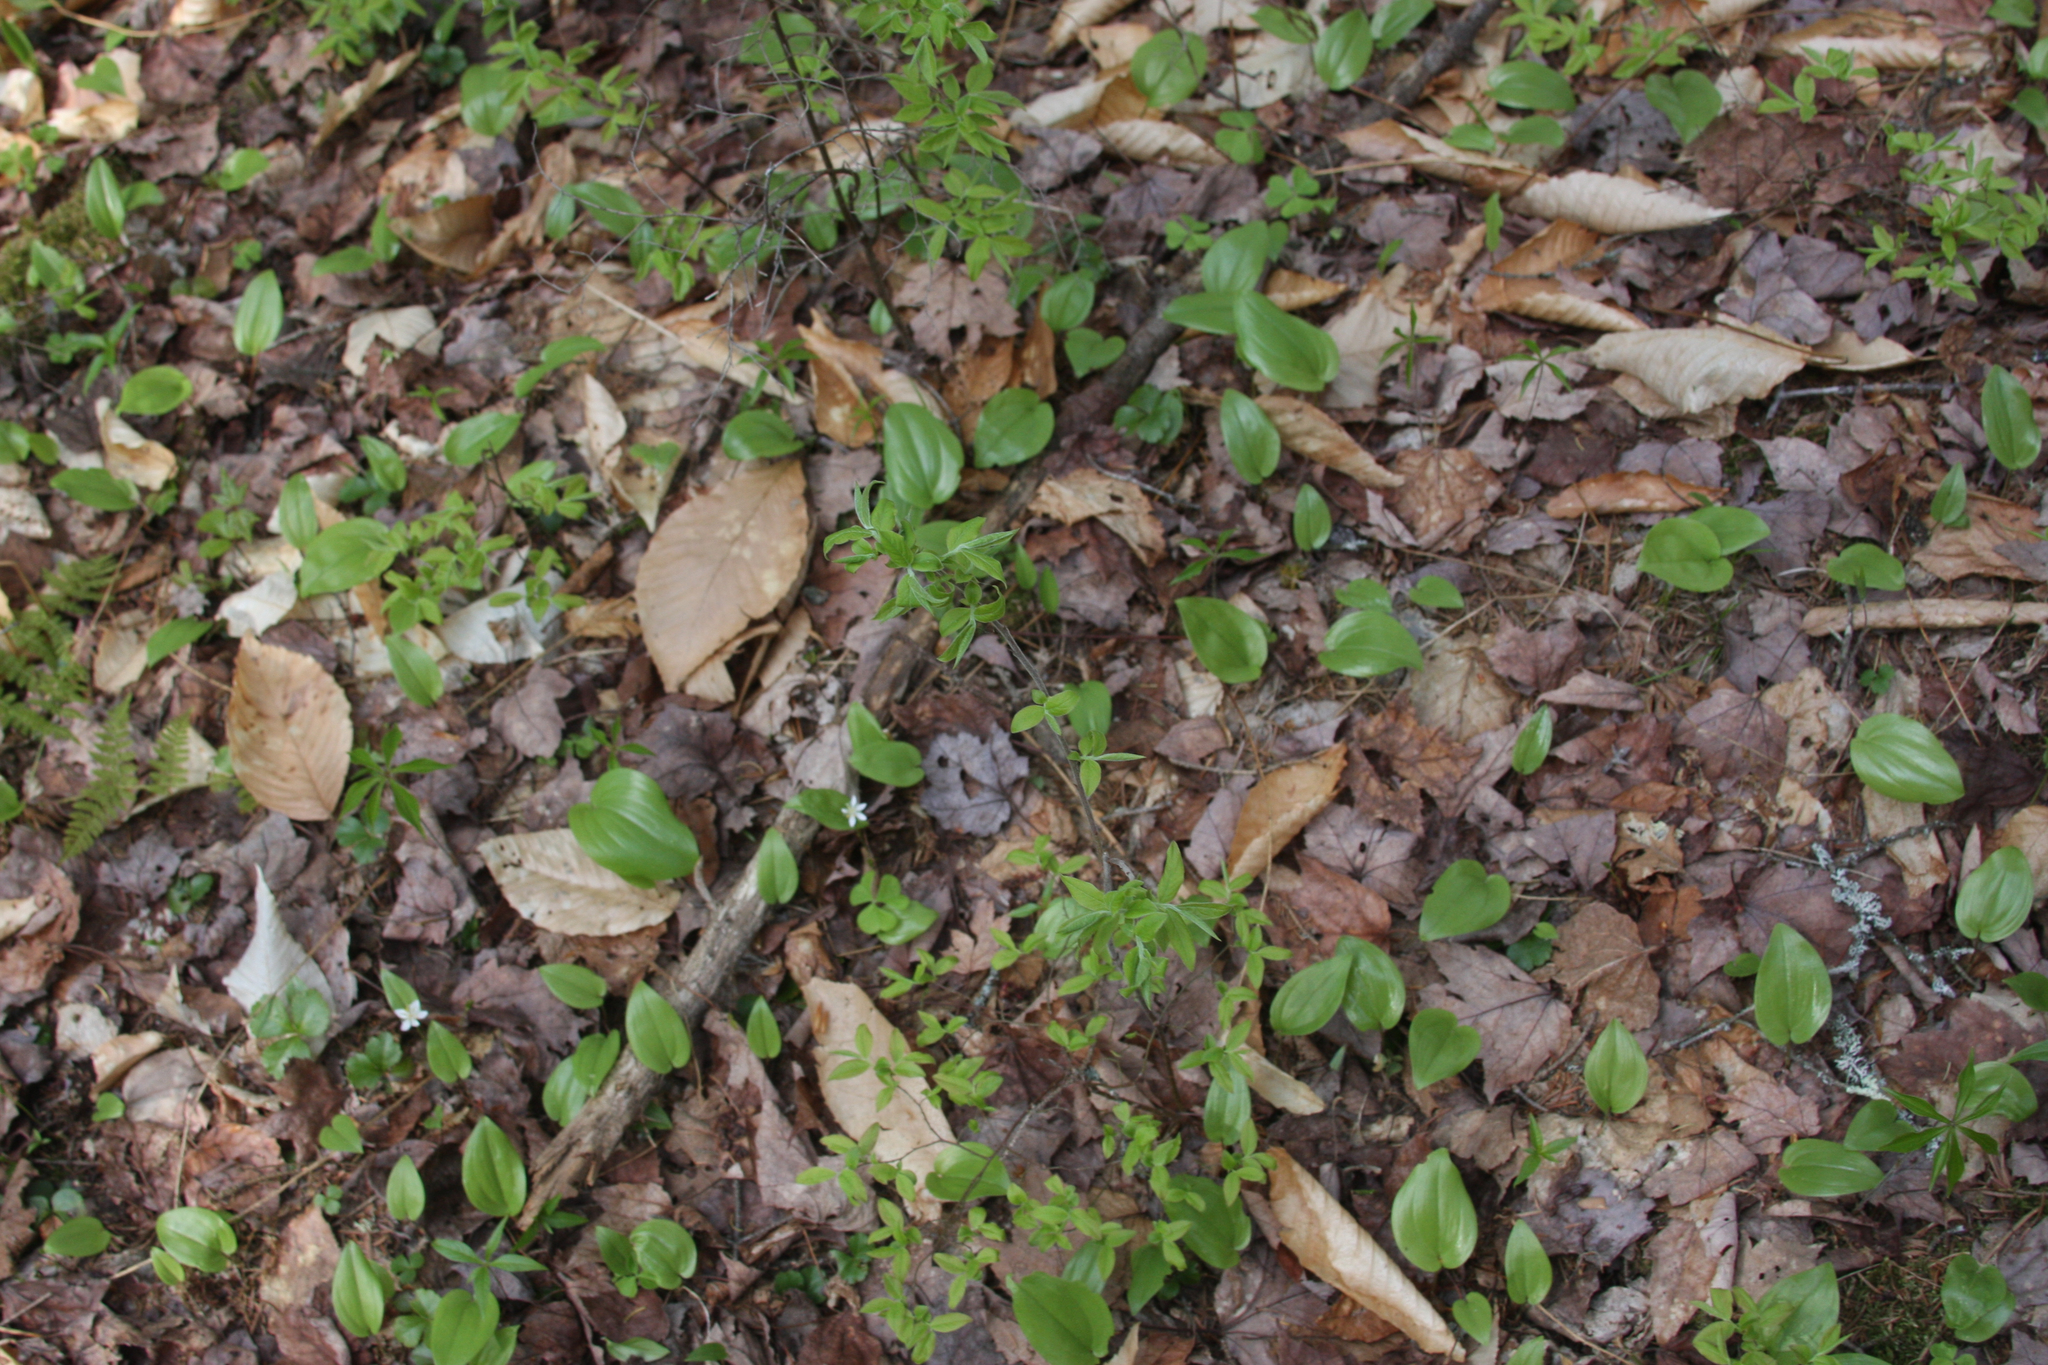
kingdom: Plantae
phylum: Tracheophyta
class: Liliopsida
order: Asparagales
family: Asparagaceae
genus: Maianthemum
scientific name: Maianthemum canadense
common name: False lily-of-the-valley
